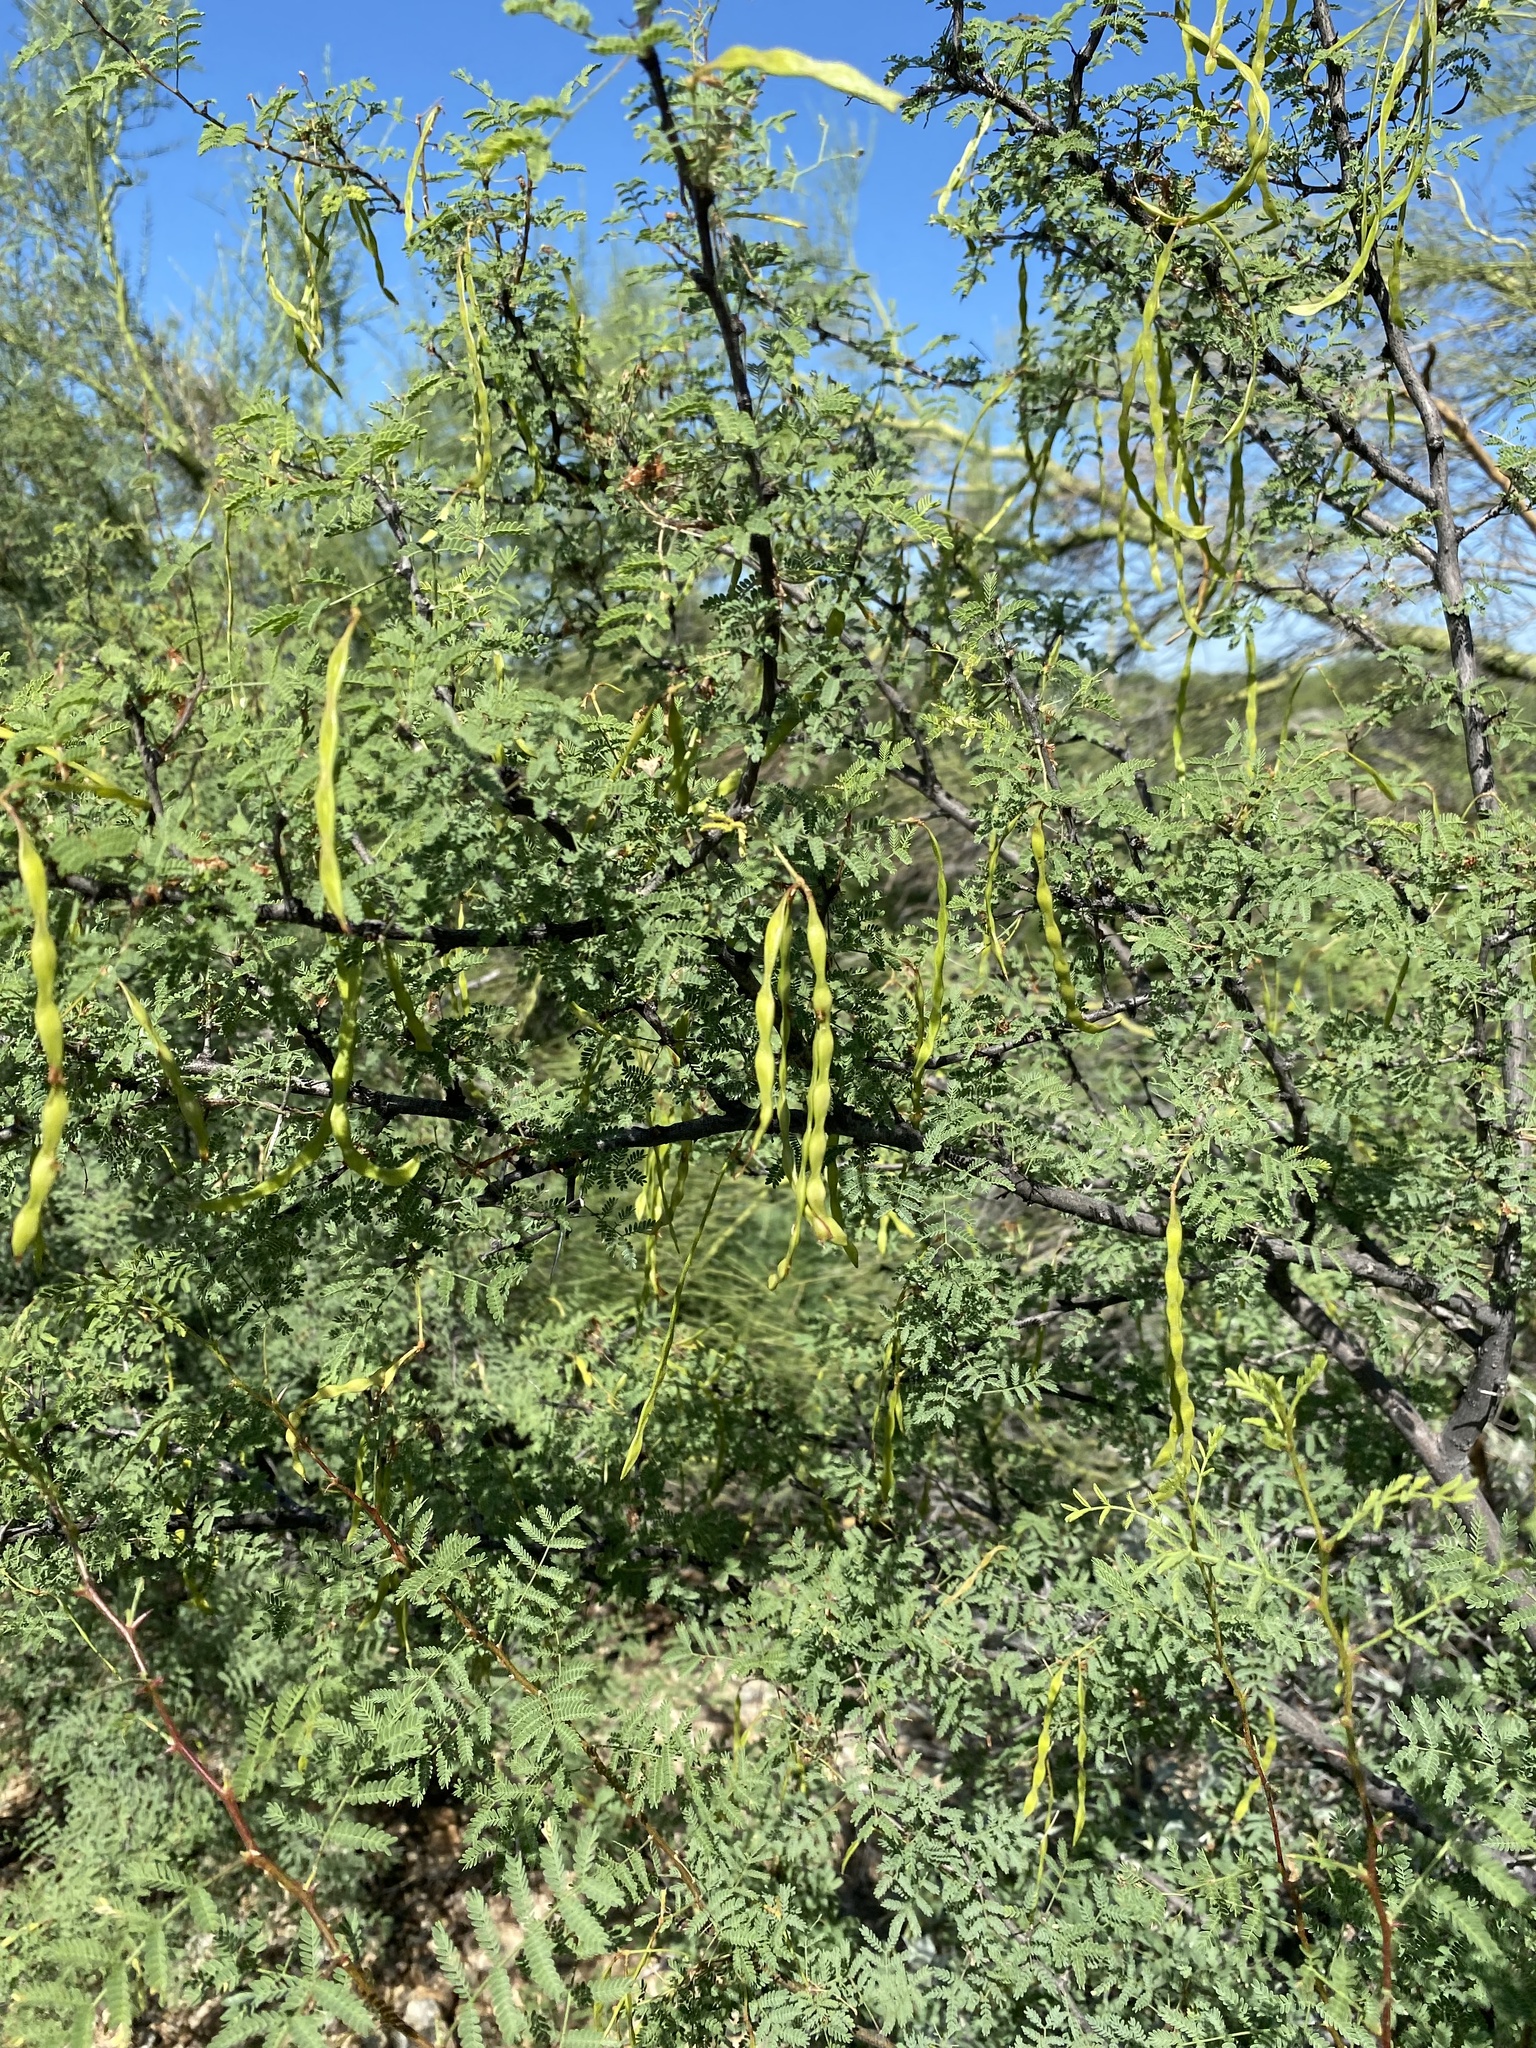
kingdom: Plantae
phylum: Tracheophyta
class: Magnoliopsida
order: Fabales
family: Fabaceae
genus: Vachellia
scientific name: Vachellia constricta
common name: Mescat acacia
